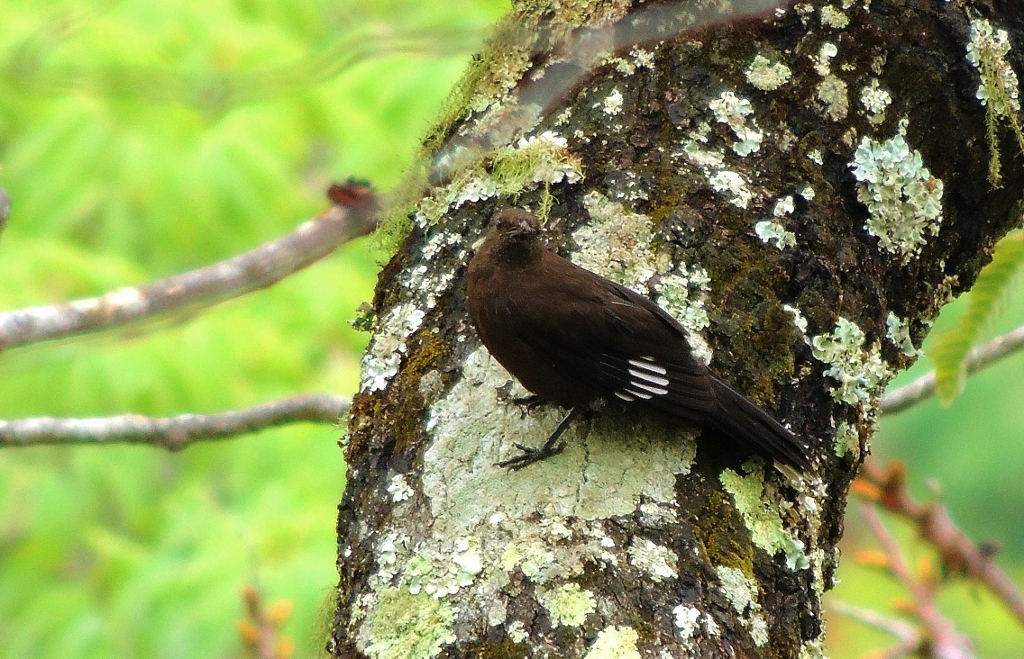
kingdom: Animalia
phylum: Chordata
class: Aves
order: Passeriformes
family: Muscicapidae
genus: Pinarornis
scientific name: Pinarornis plumosus
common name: Boulder chat
